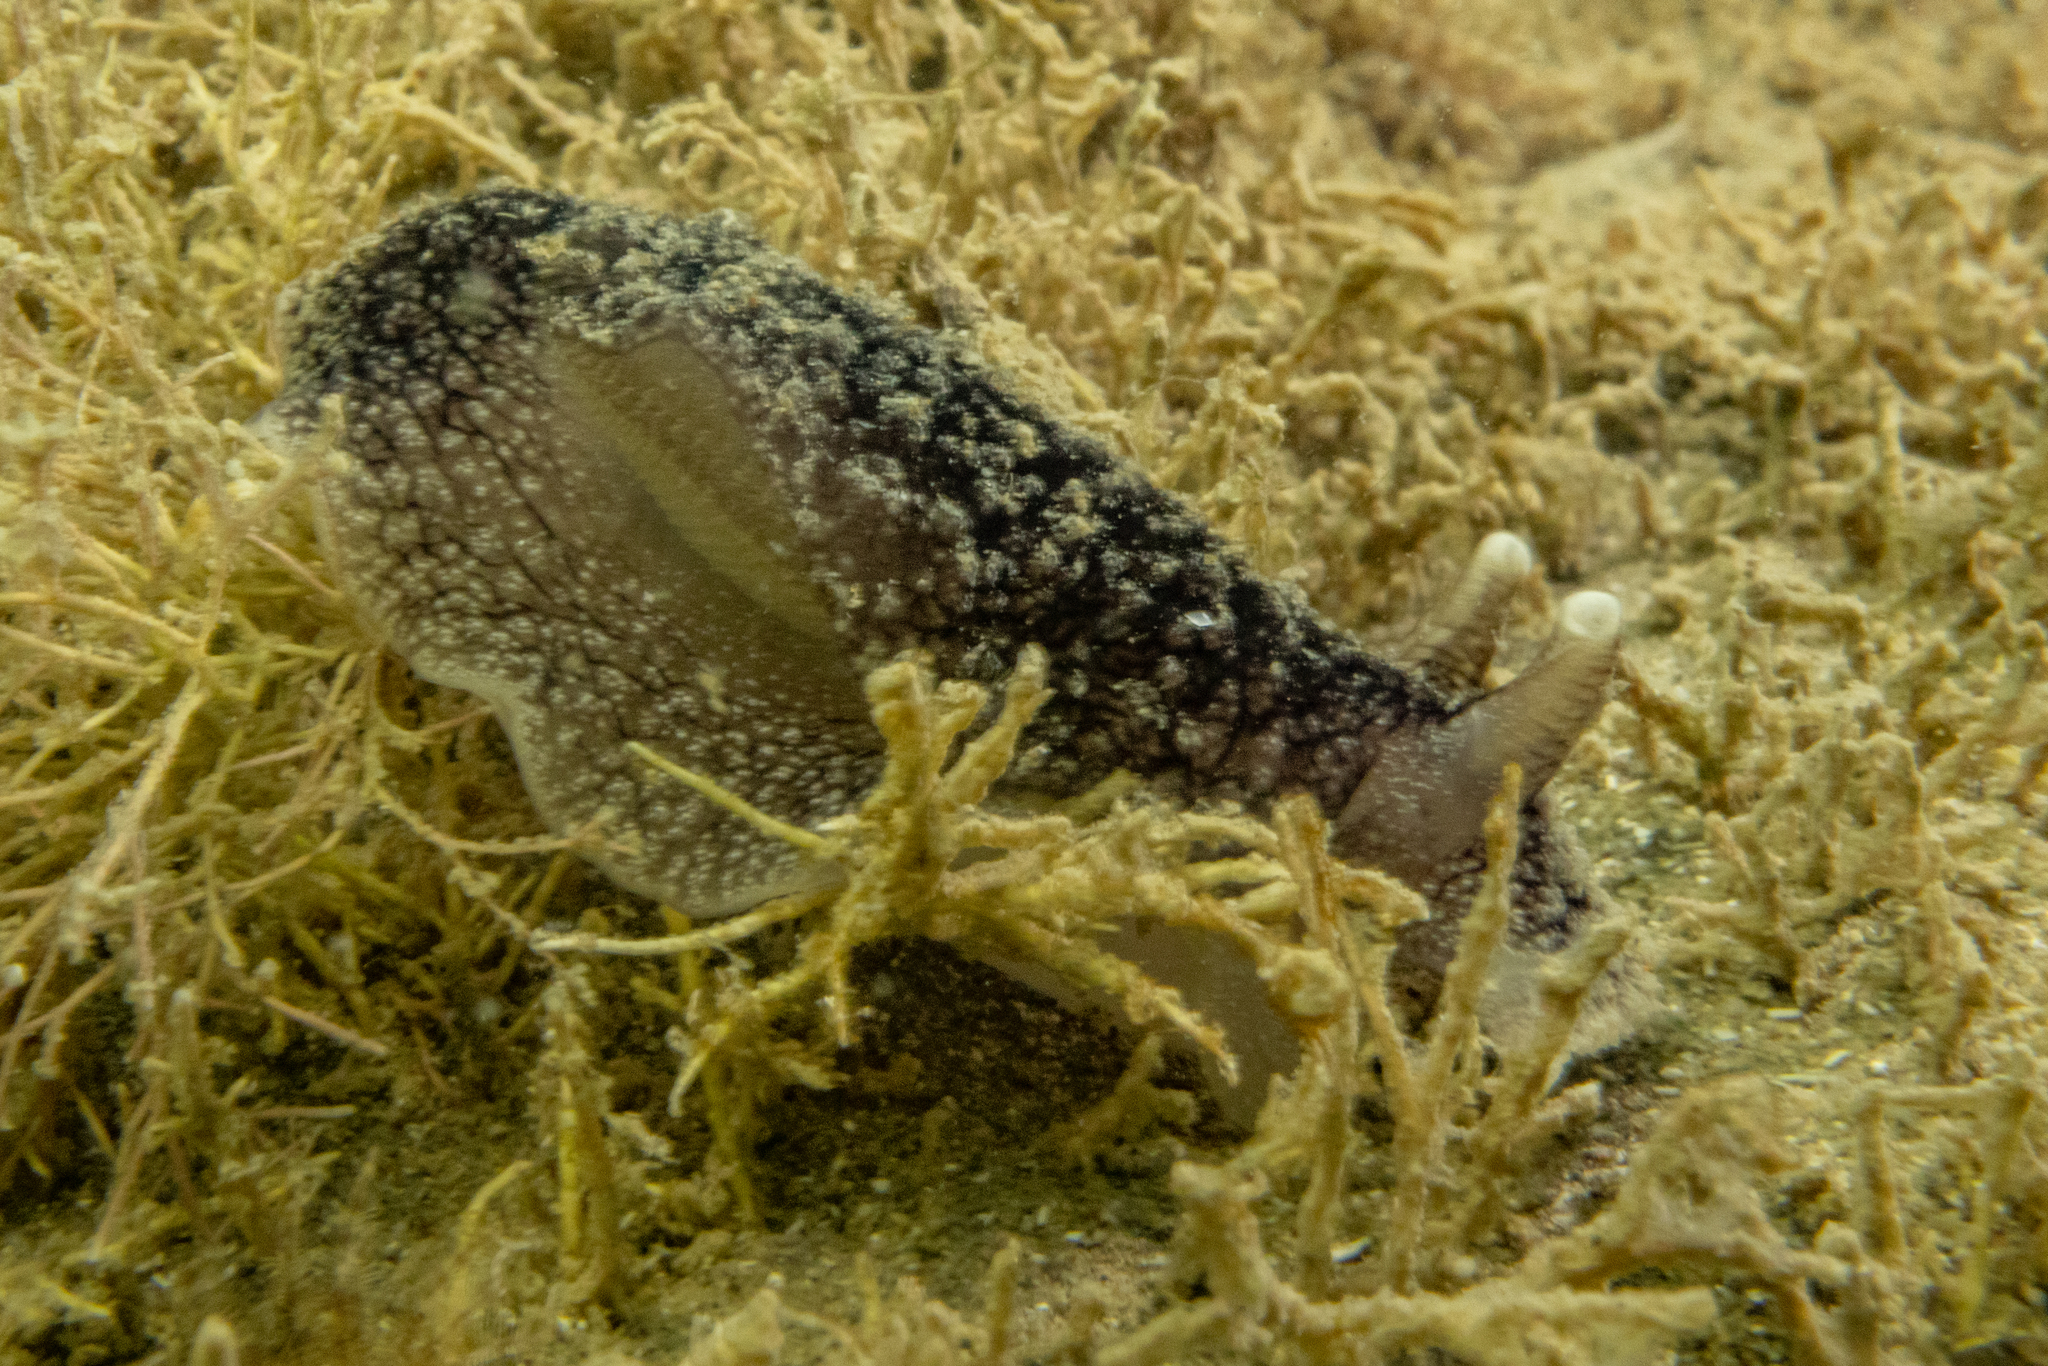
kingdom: Animalia
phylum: Mollusca
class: Gastropoda
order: Pleurobranchida
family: Pleurobranchaeidae
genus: Pleurobranchaea
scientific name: Pleurobranchaea maculata
